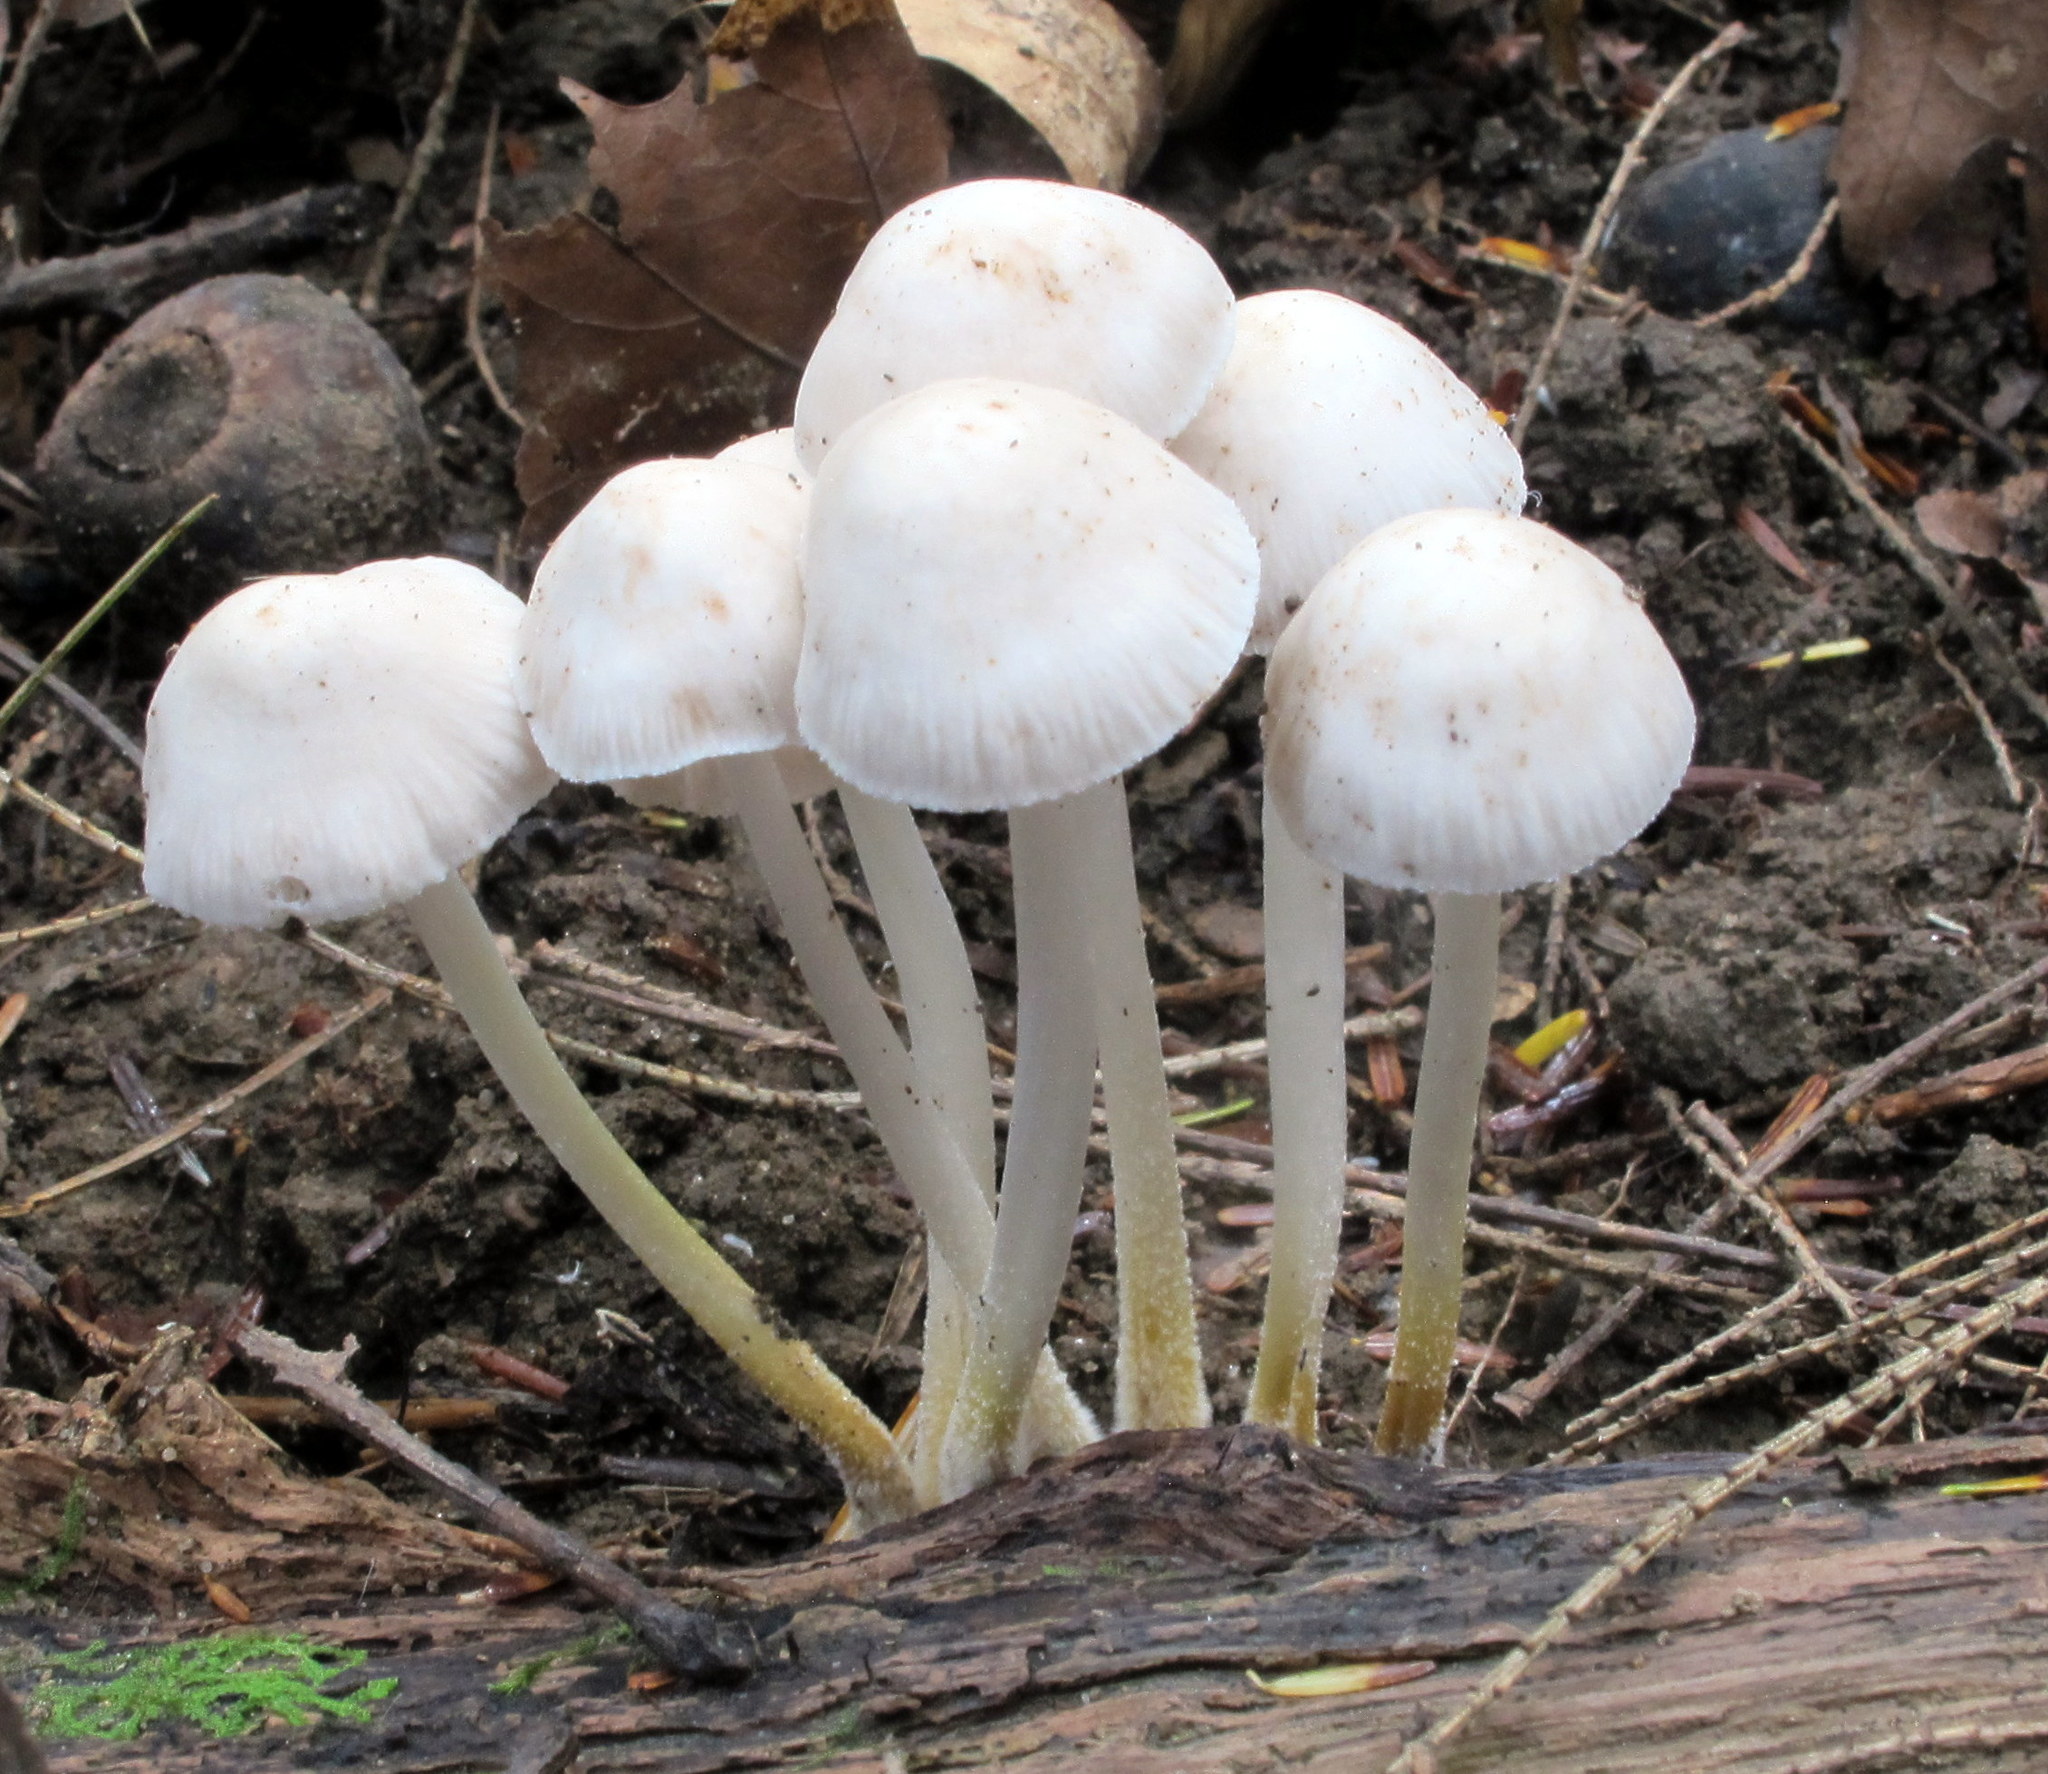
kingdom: Fungi
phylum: Basidiomycota
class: Agaricomycetes
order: Agaricales
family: Mycenaceae
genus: Mycena
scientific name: Mycena inclinata
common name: Clustered bonnet
